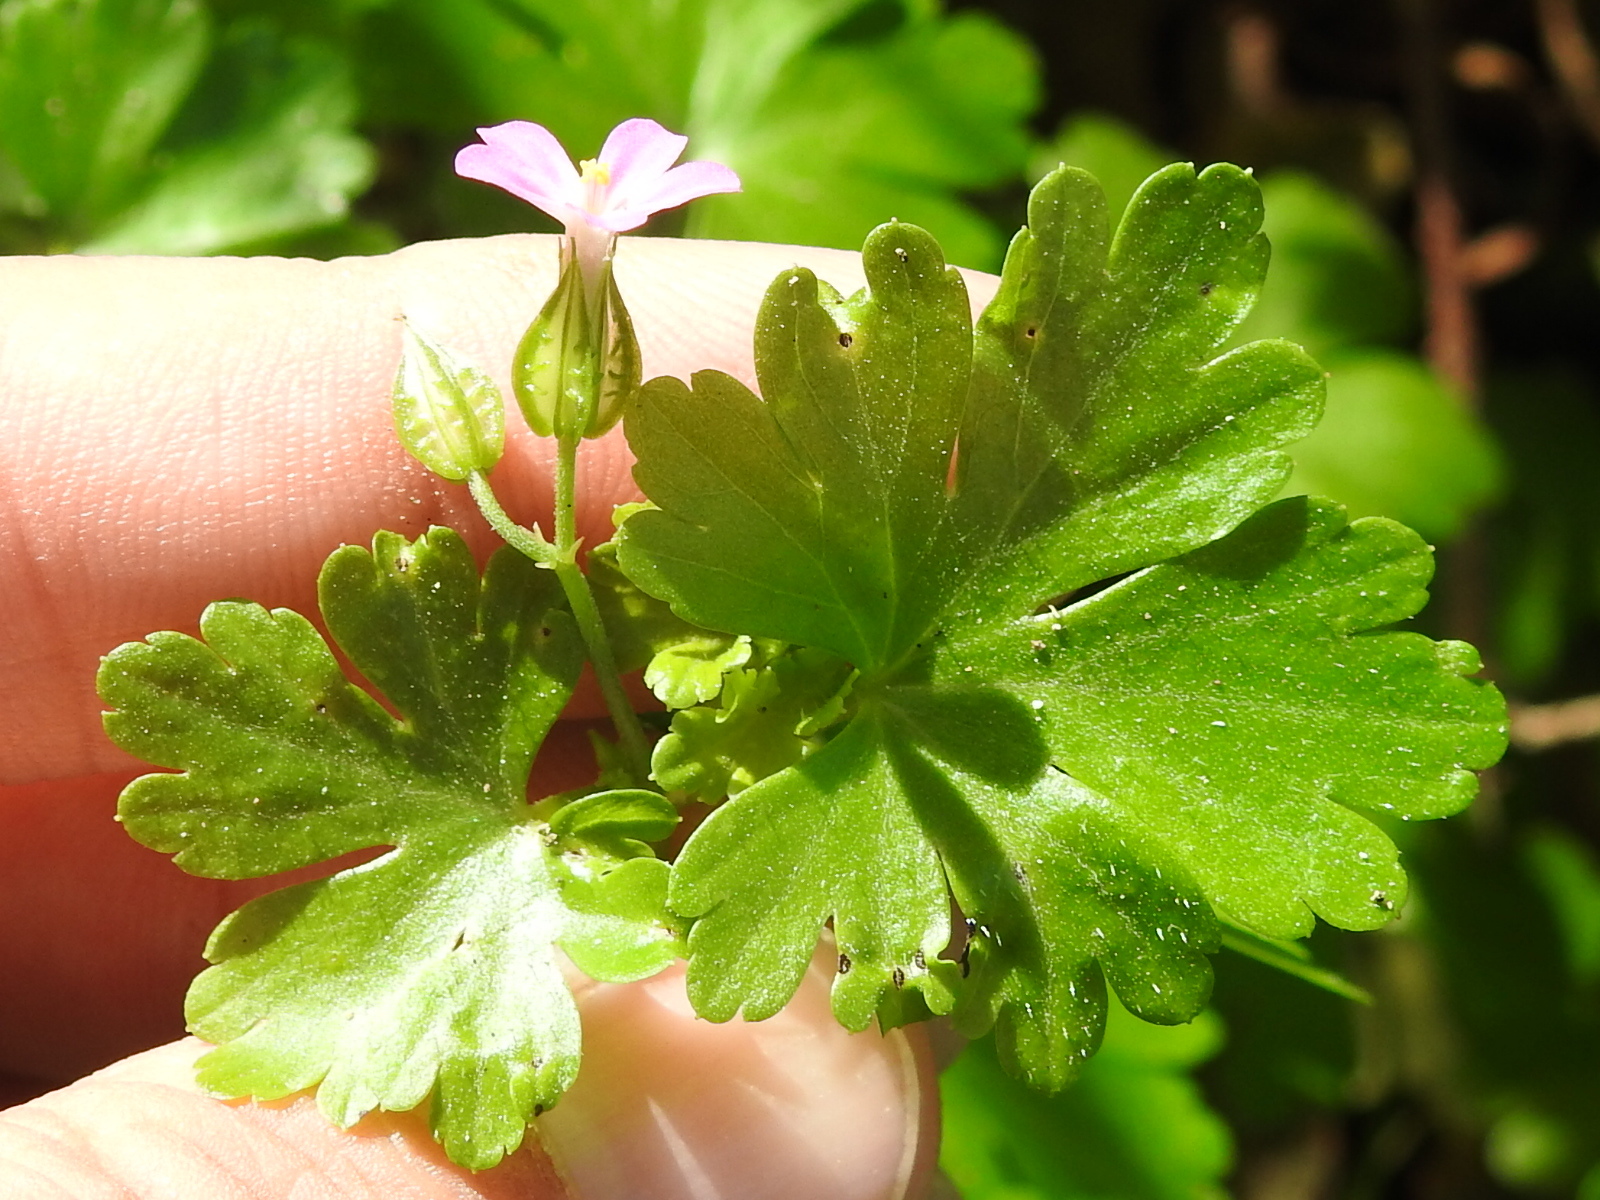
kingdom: Plantae
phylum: Tracheophyta
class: Magnoliopsida
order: Geraniales
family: Geraniaceae
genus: Geranium
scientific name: Geranium lucidum
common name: Shining crane's-bill
